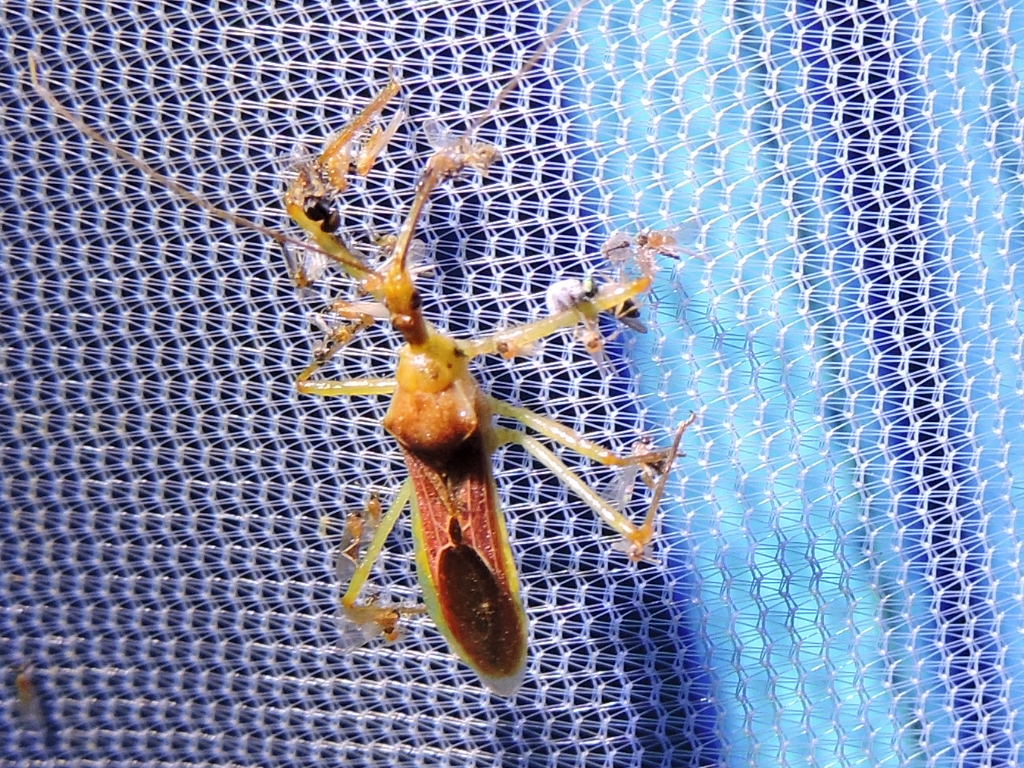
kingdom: Animalia
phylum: Arthropoda
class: Insecta
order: Hemiptera
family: Reduviidae
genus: Zelus
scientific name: Zelus renardii
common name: Assassin bug
